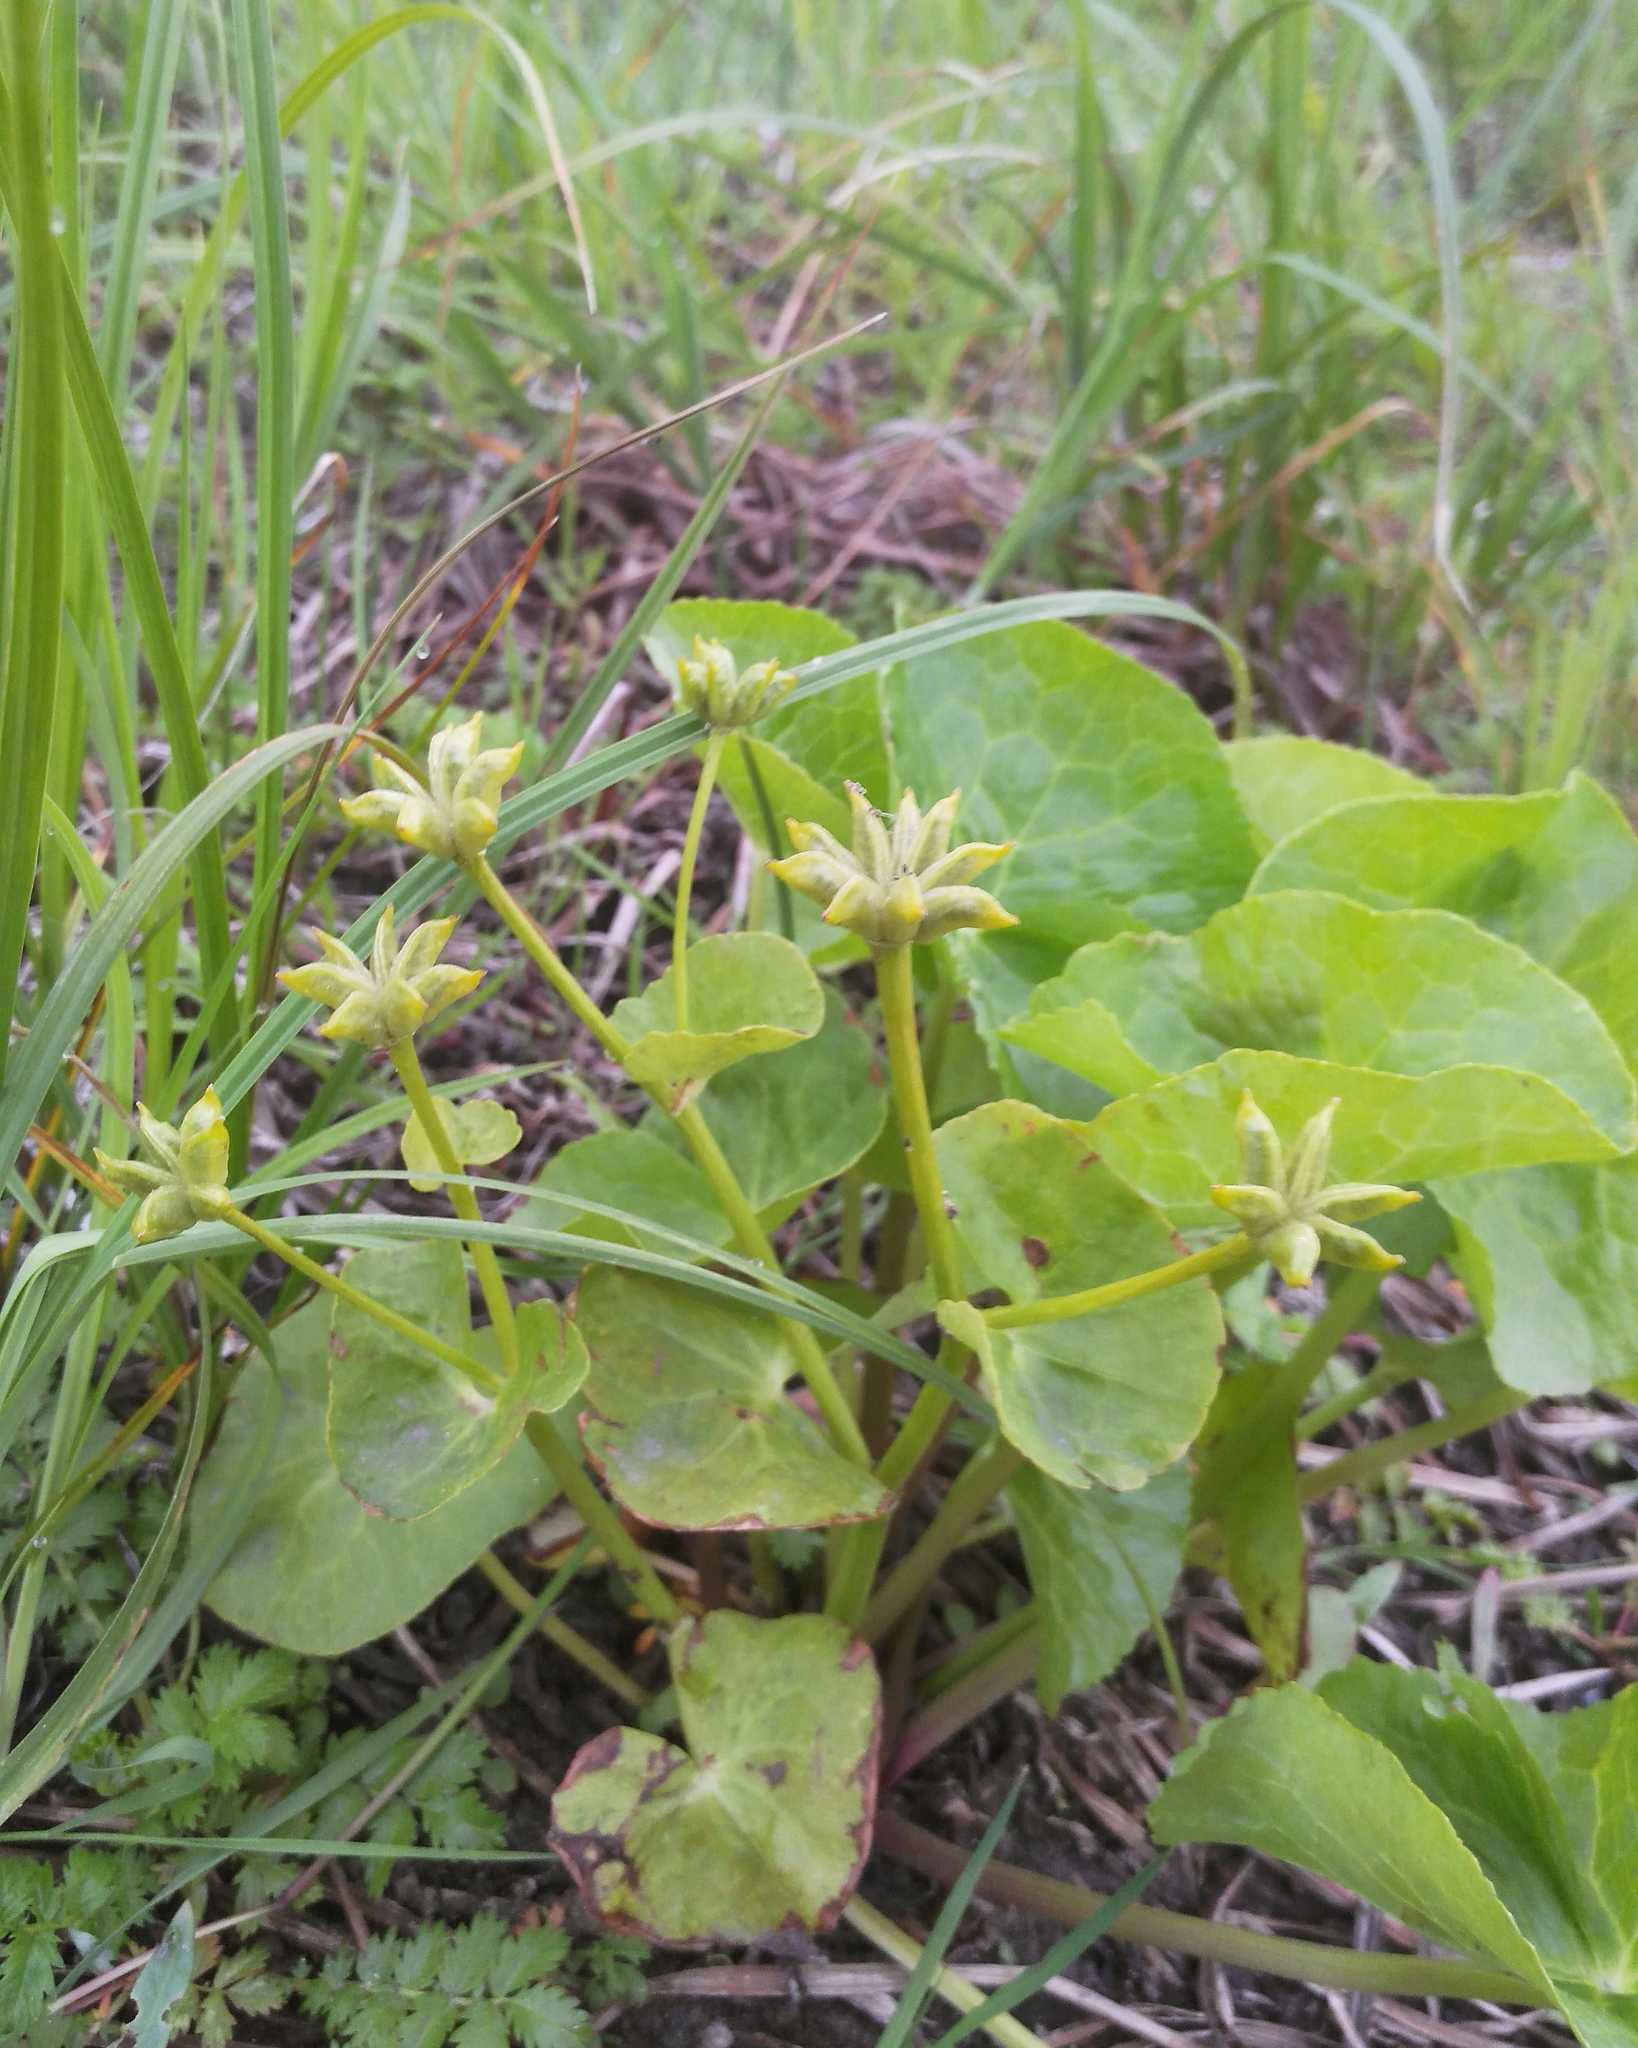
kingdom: Plantae
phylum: Tracheophyta
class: Magnoliopsida
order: Ranunculales
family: Ranunculaceae
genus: Caltha
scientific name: Caltha palustris
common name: Marsh marigold
